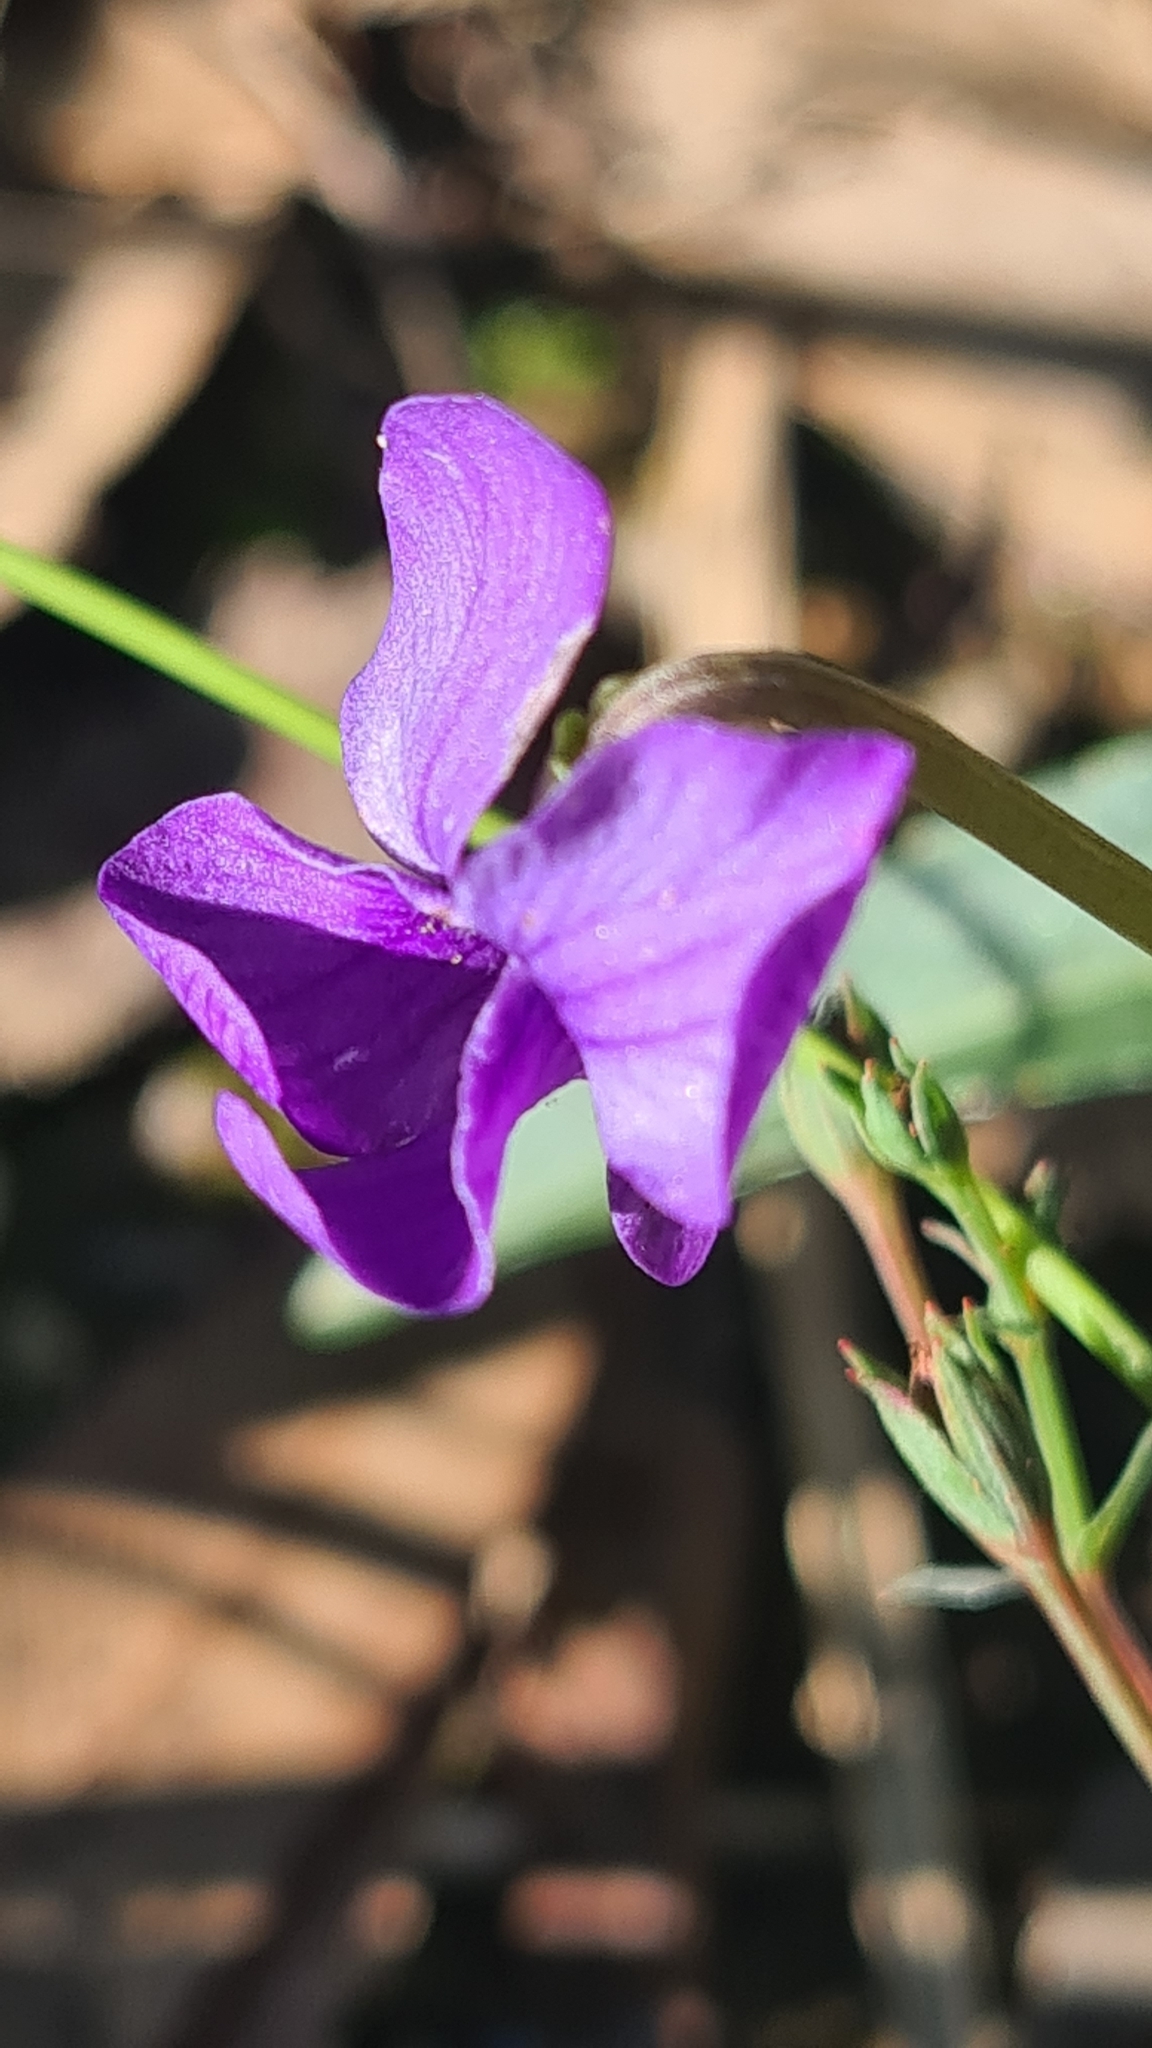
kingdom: Plantae
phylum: Tracheophyta
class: Magnoliopsida
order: Malpighiales
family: Violaceae
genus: Viola
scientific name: Viola betonicifolia
